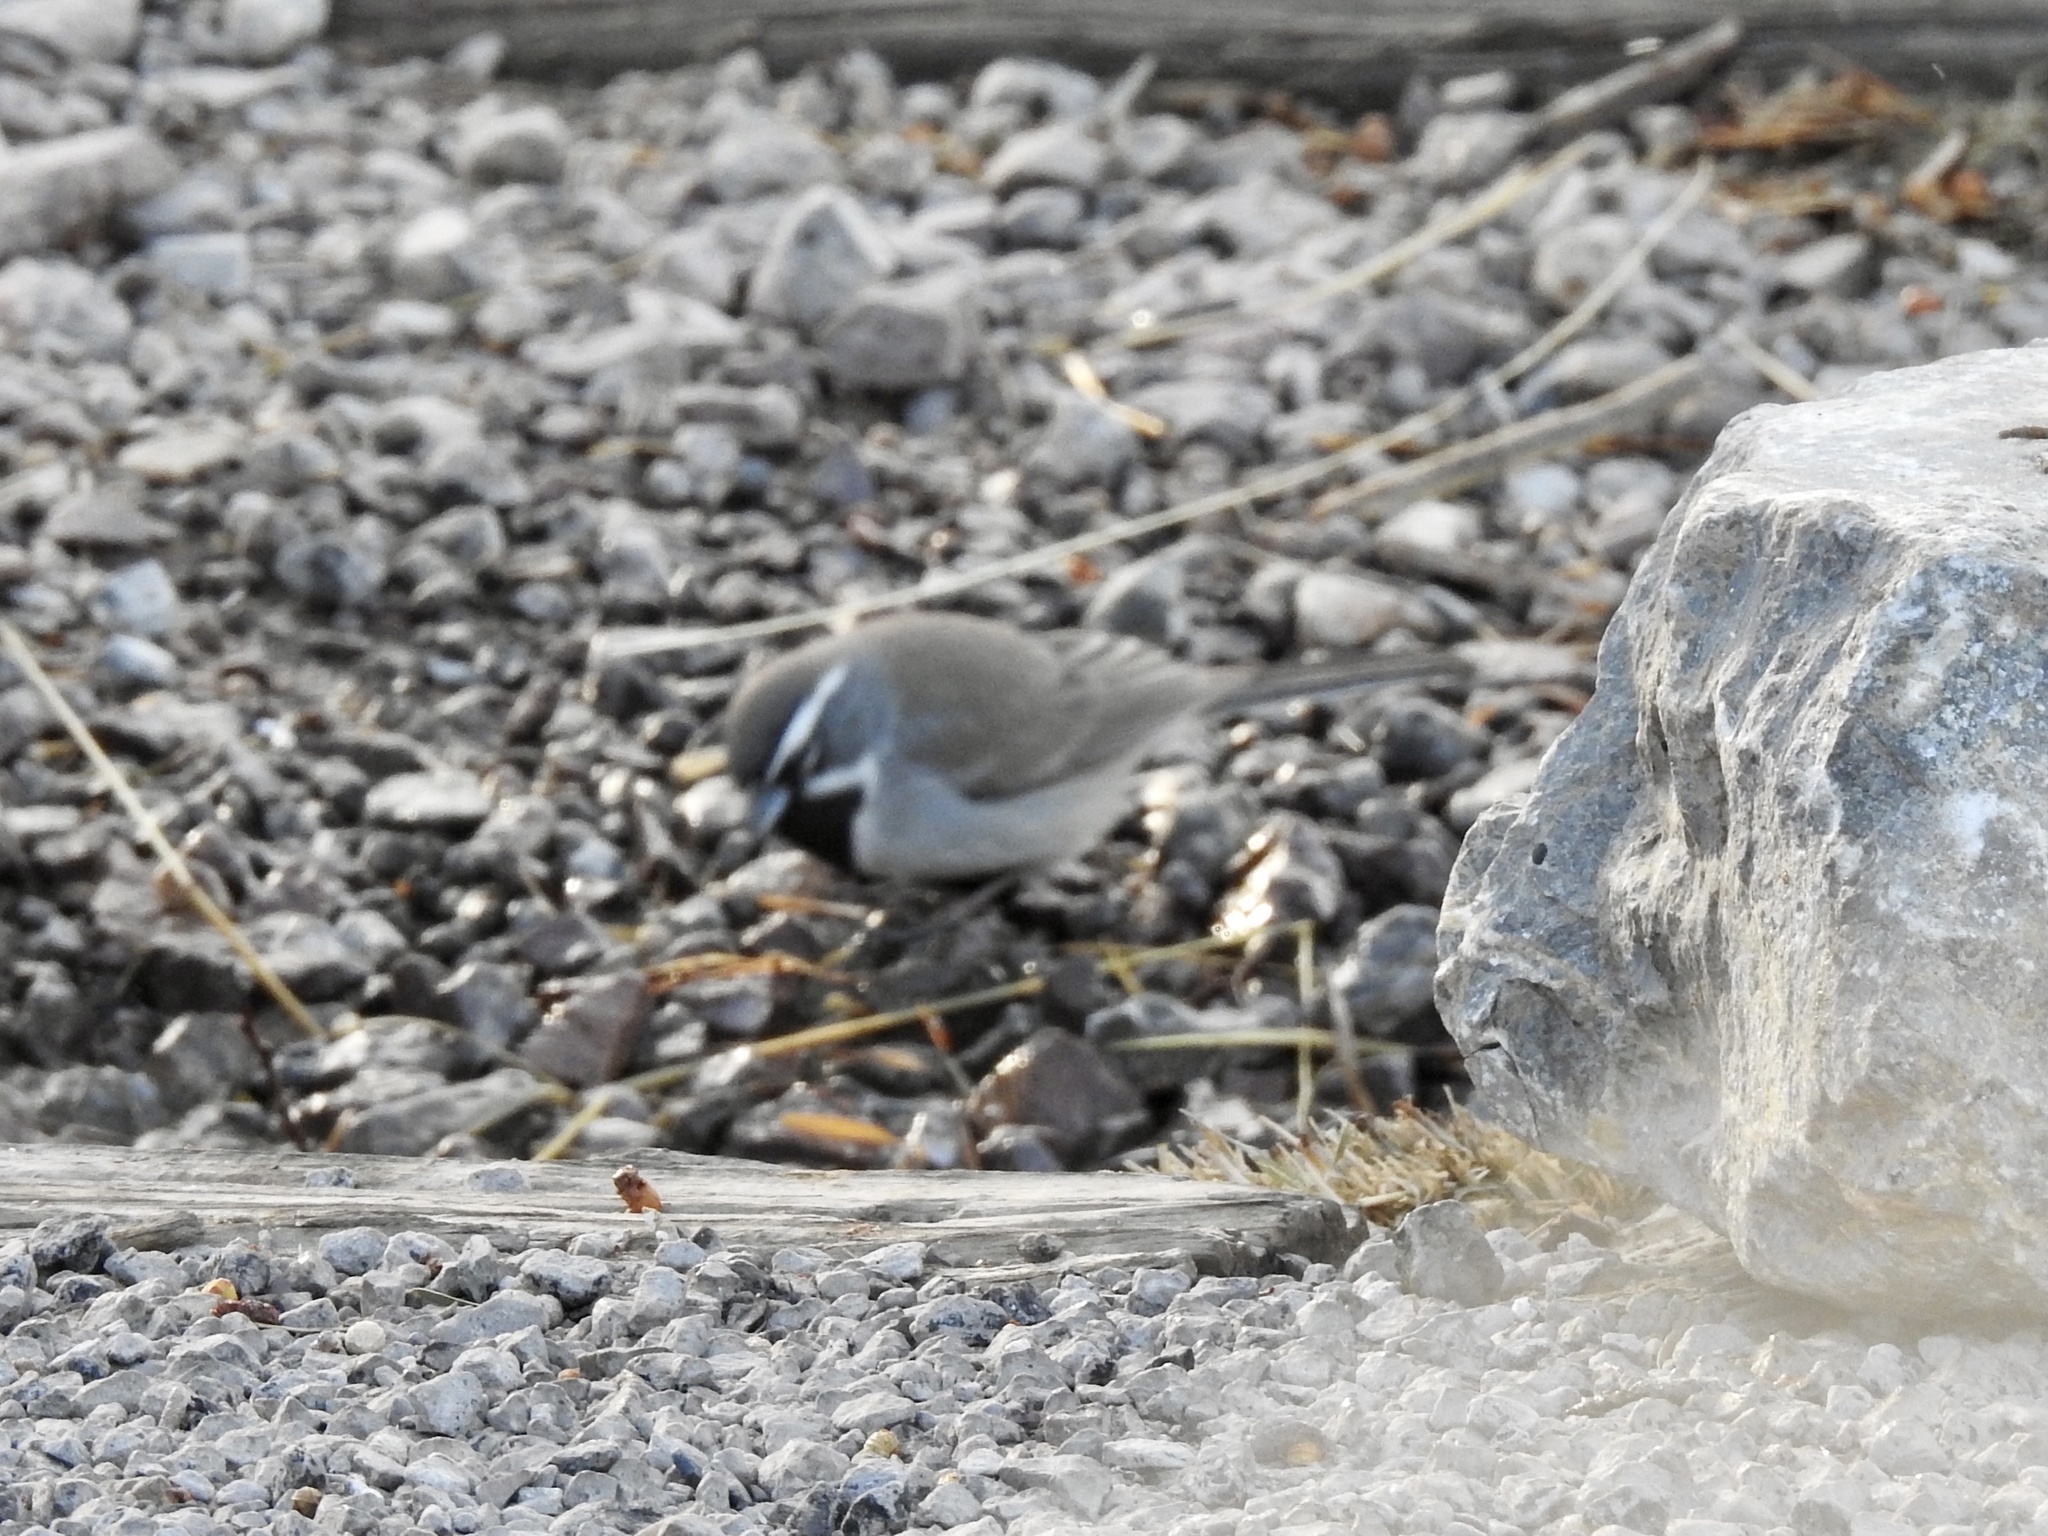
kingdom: Animalia
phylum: Chordata
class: Aves
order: Passeriformes
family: Passerellidae
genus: Amphispiza
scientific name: Amphispiza bilineata
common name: Black-throated sparrow
